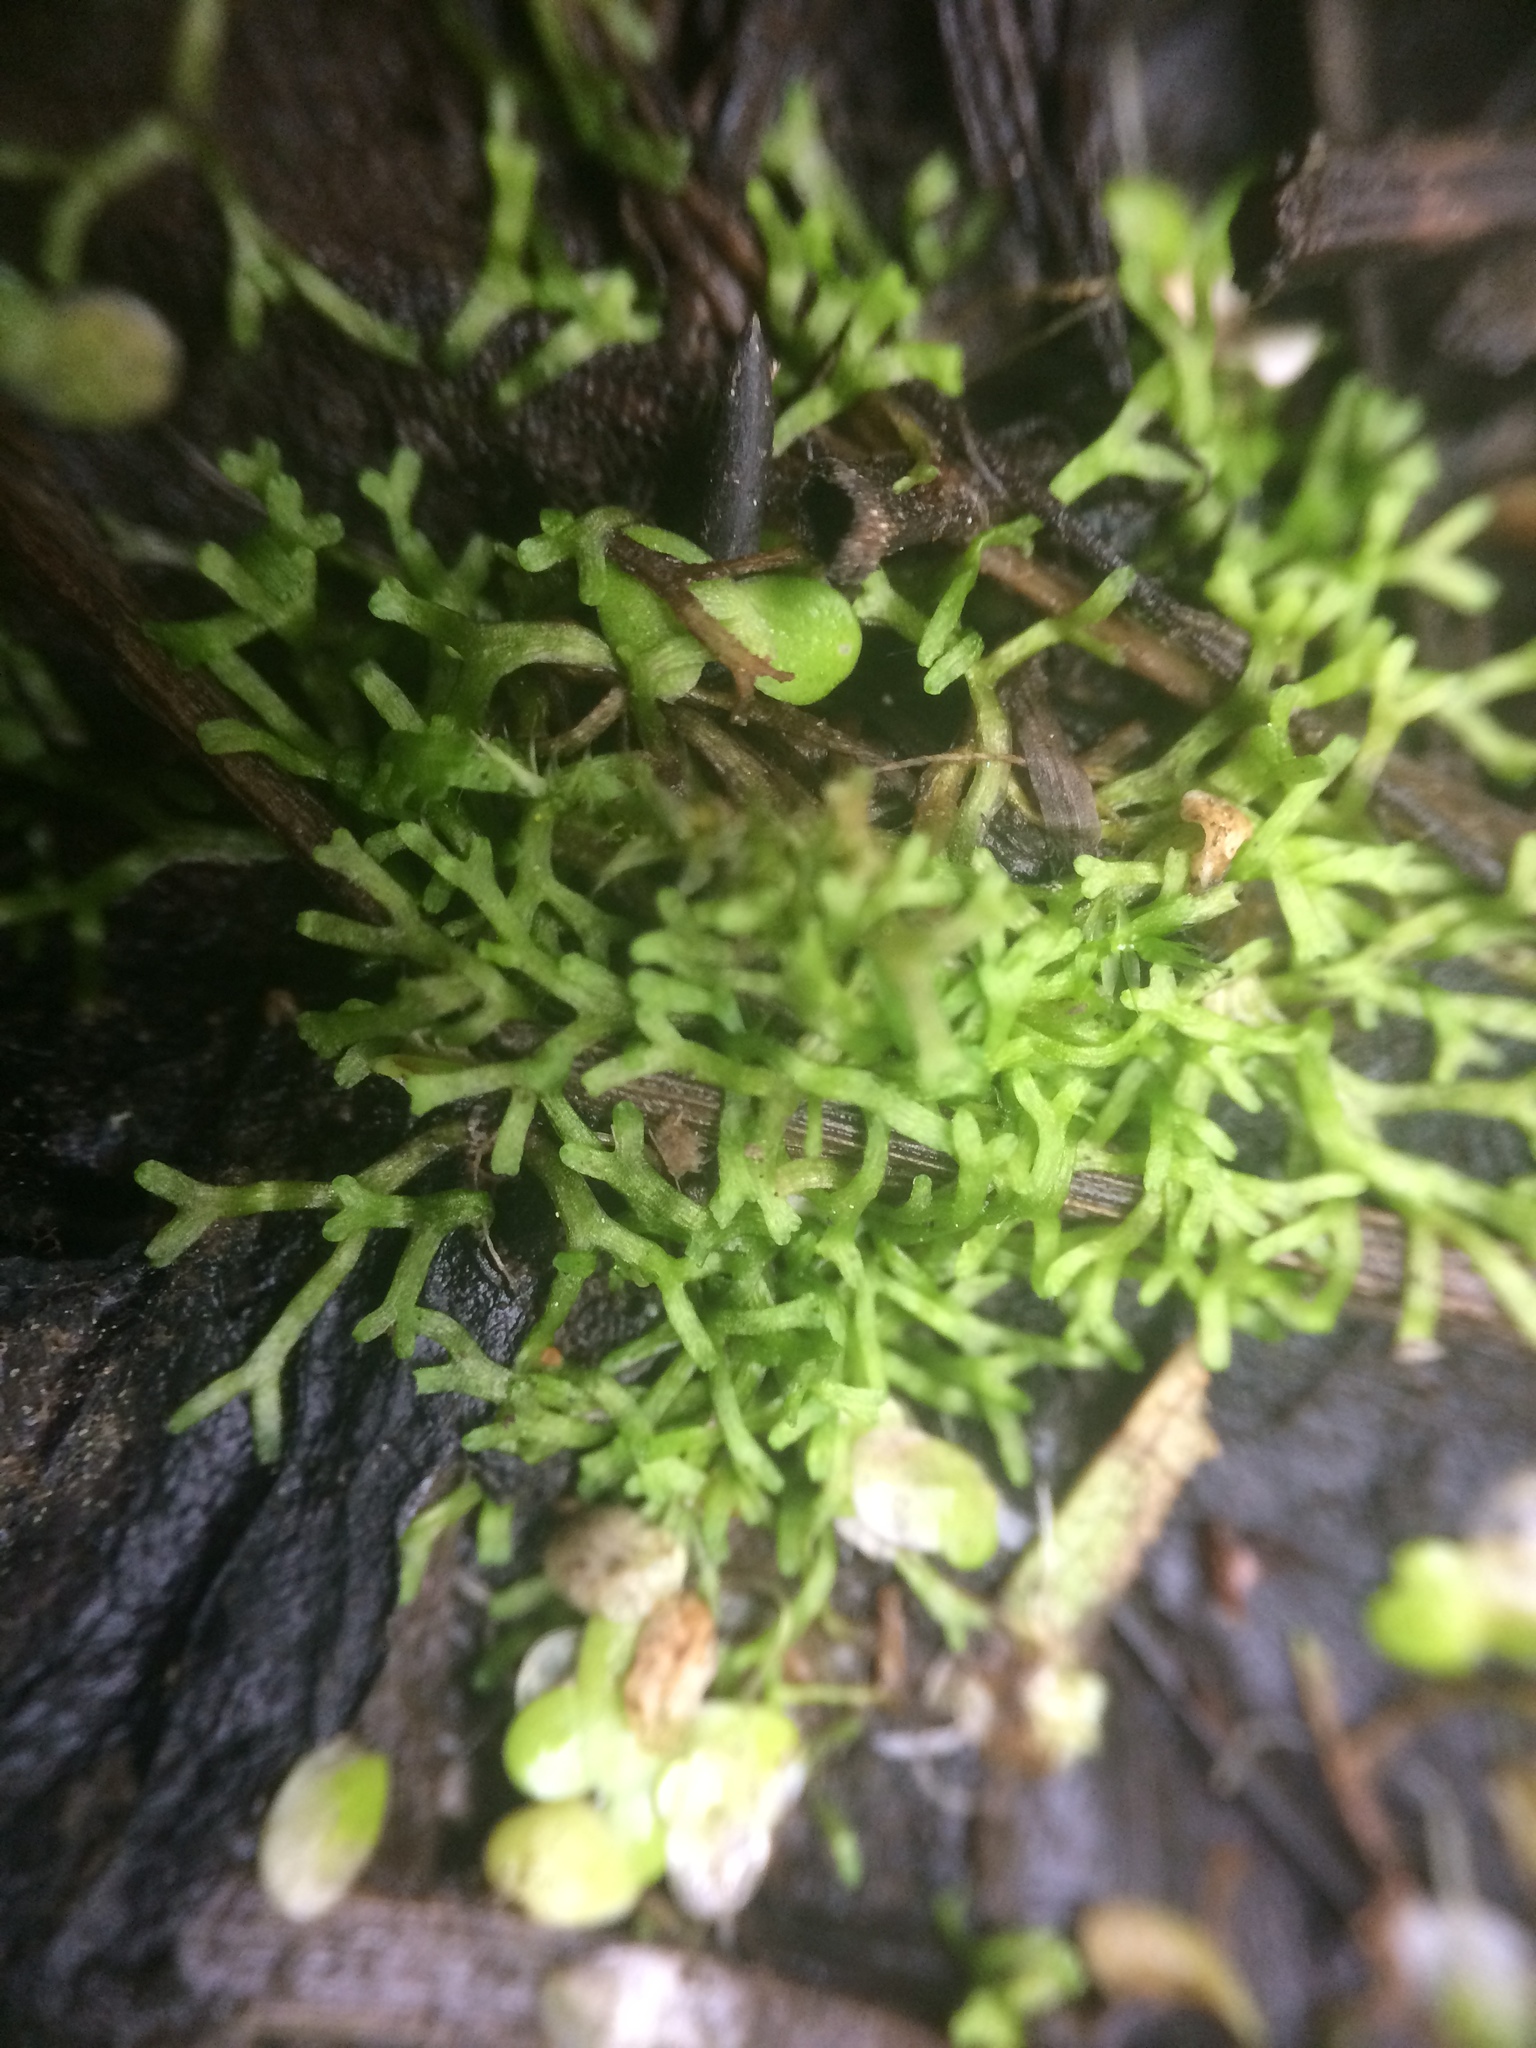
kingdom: Plantae
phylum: Marchantiophyta
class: Marchantiopsida
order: Marchantiales
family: Ricciaceae
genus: Riccia
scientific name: Riccia fluitans
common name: Floating crystalwort
